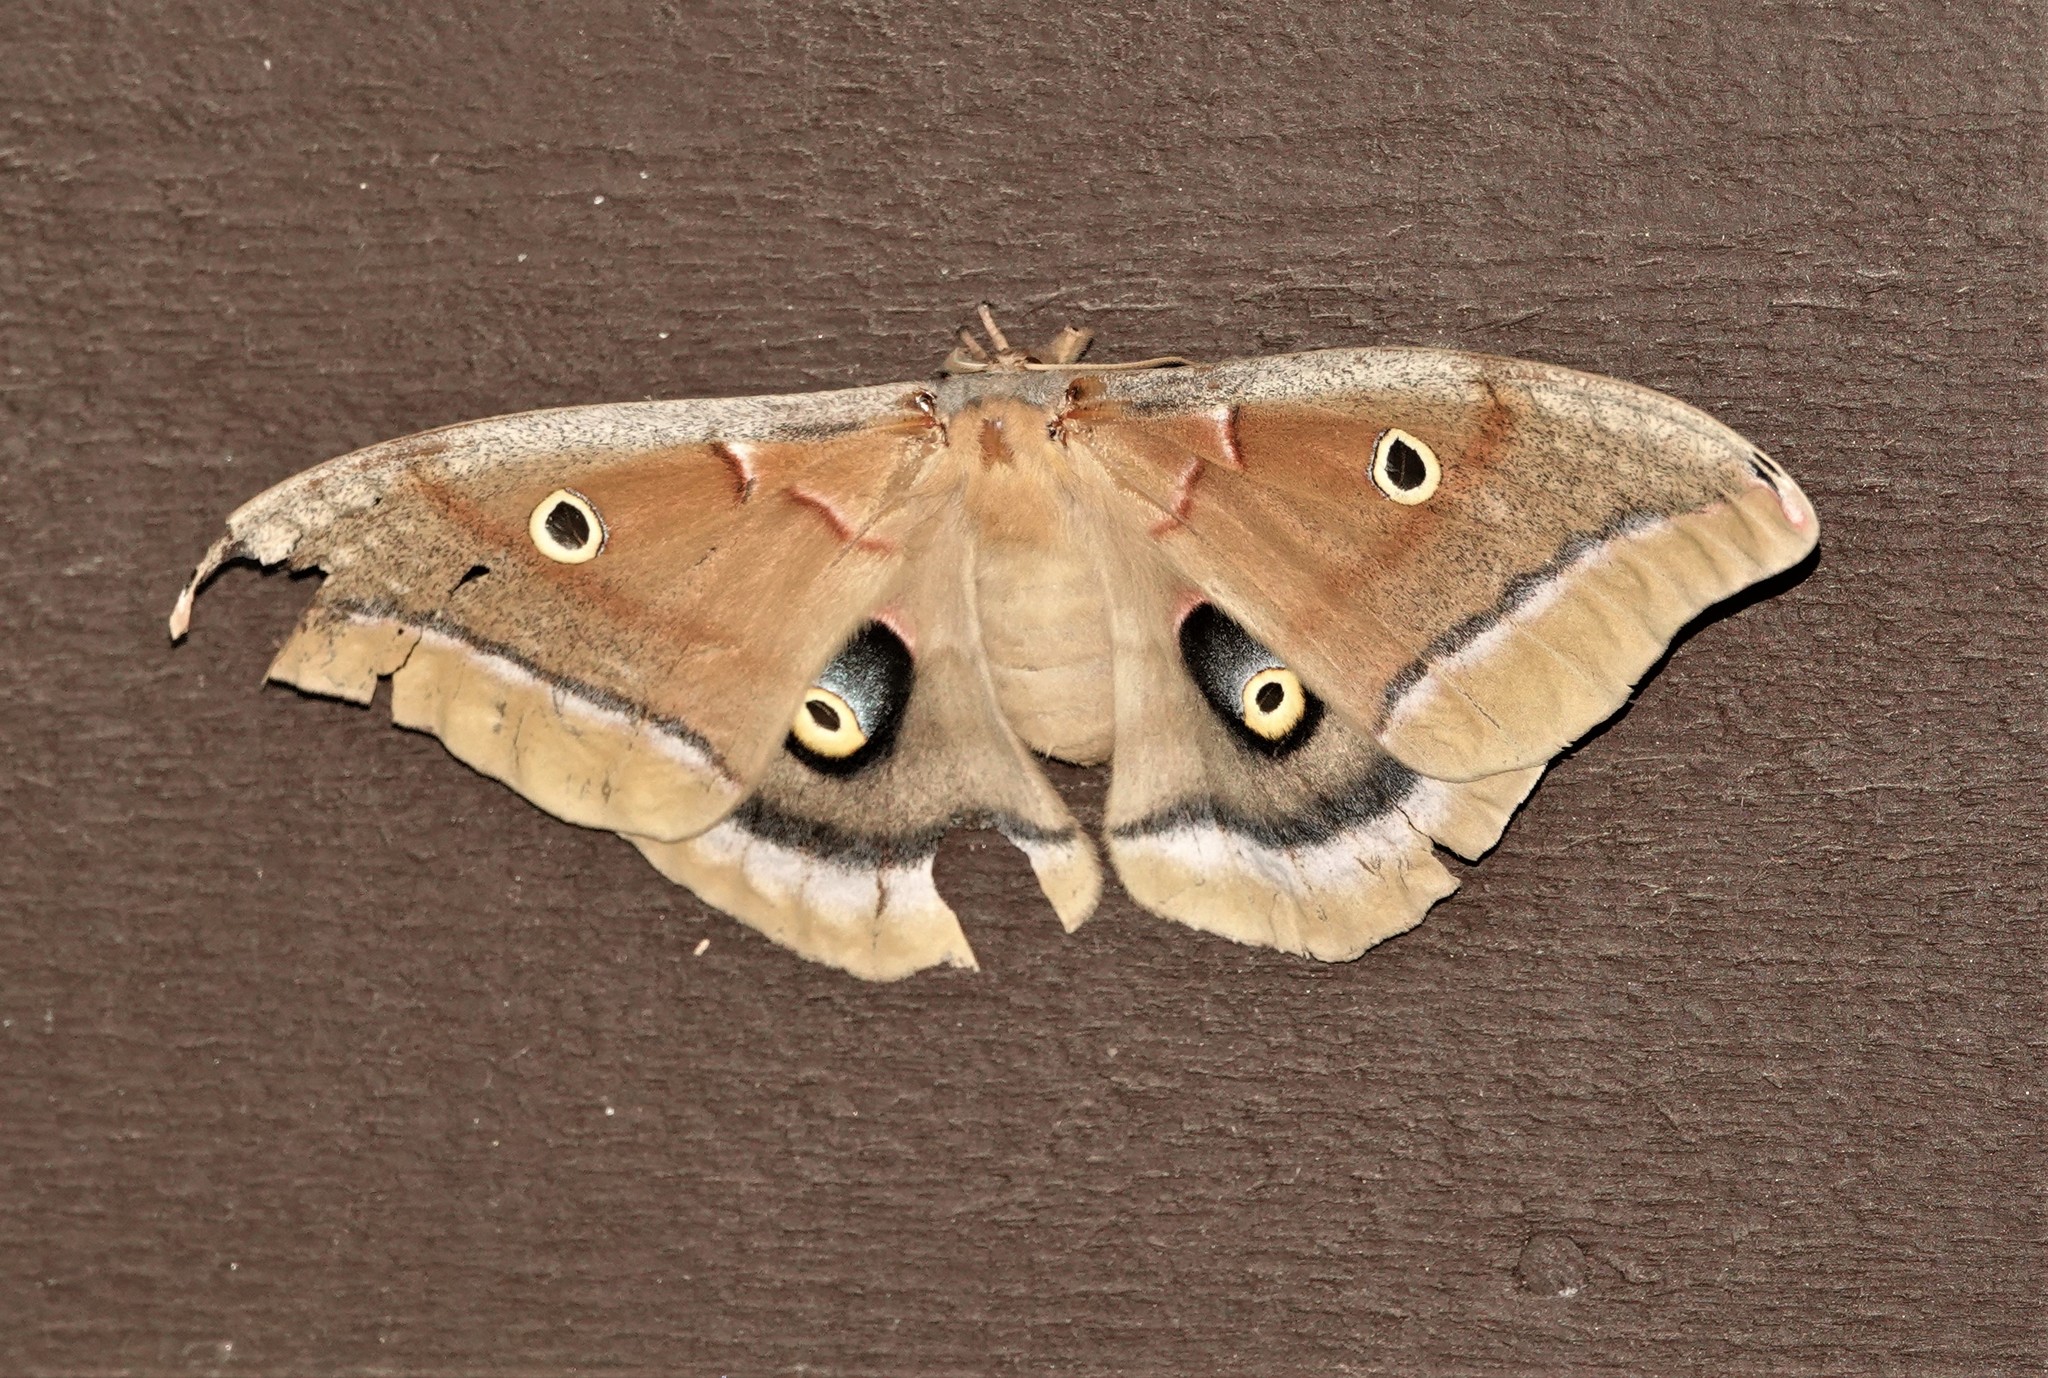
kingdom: Animalia
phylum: Arthropoda
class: Insecta
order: Lepidoptera
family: Saturniidae
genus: Antheraea
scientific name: Antheraea polyphemus
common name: Polyphemus moth
